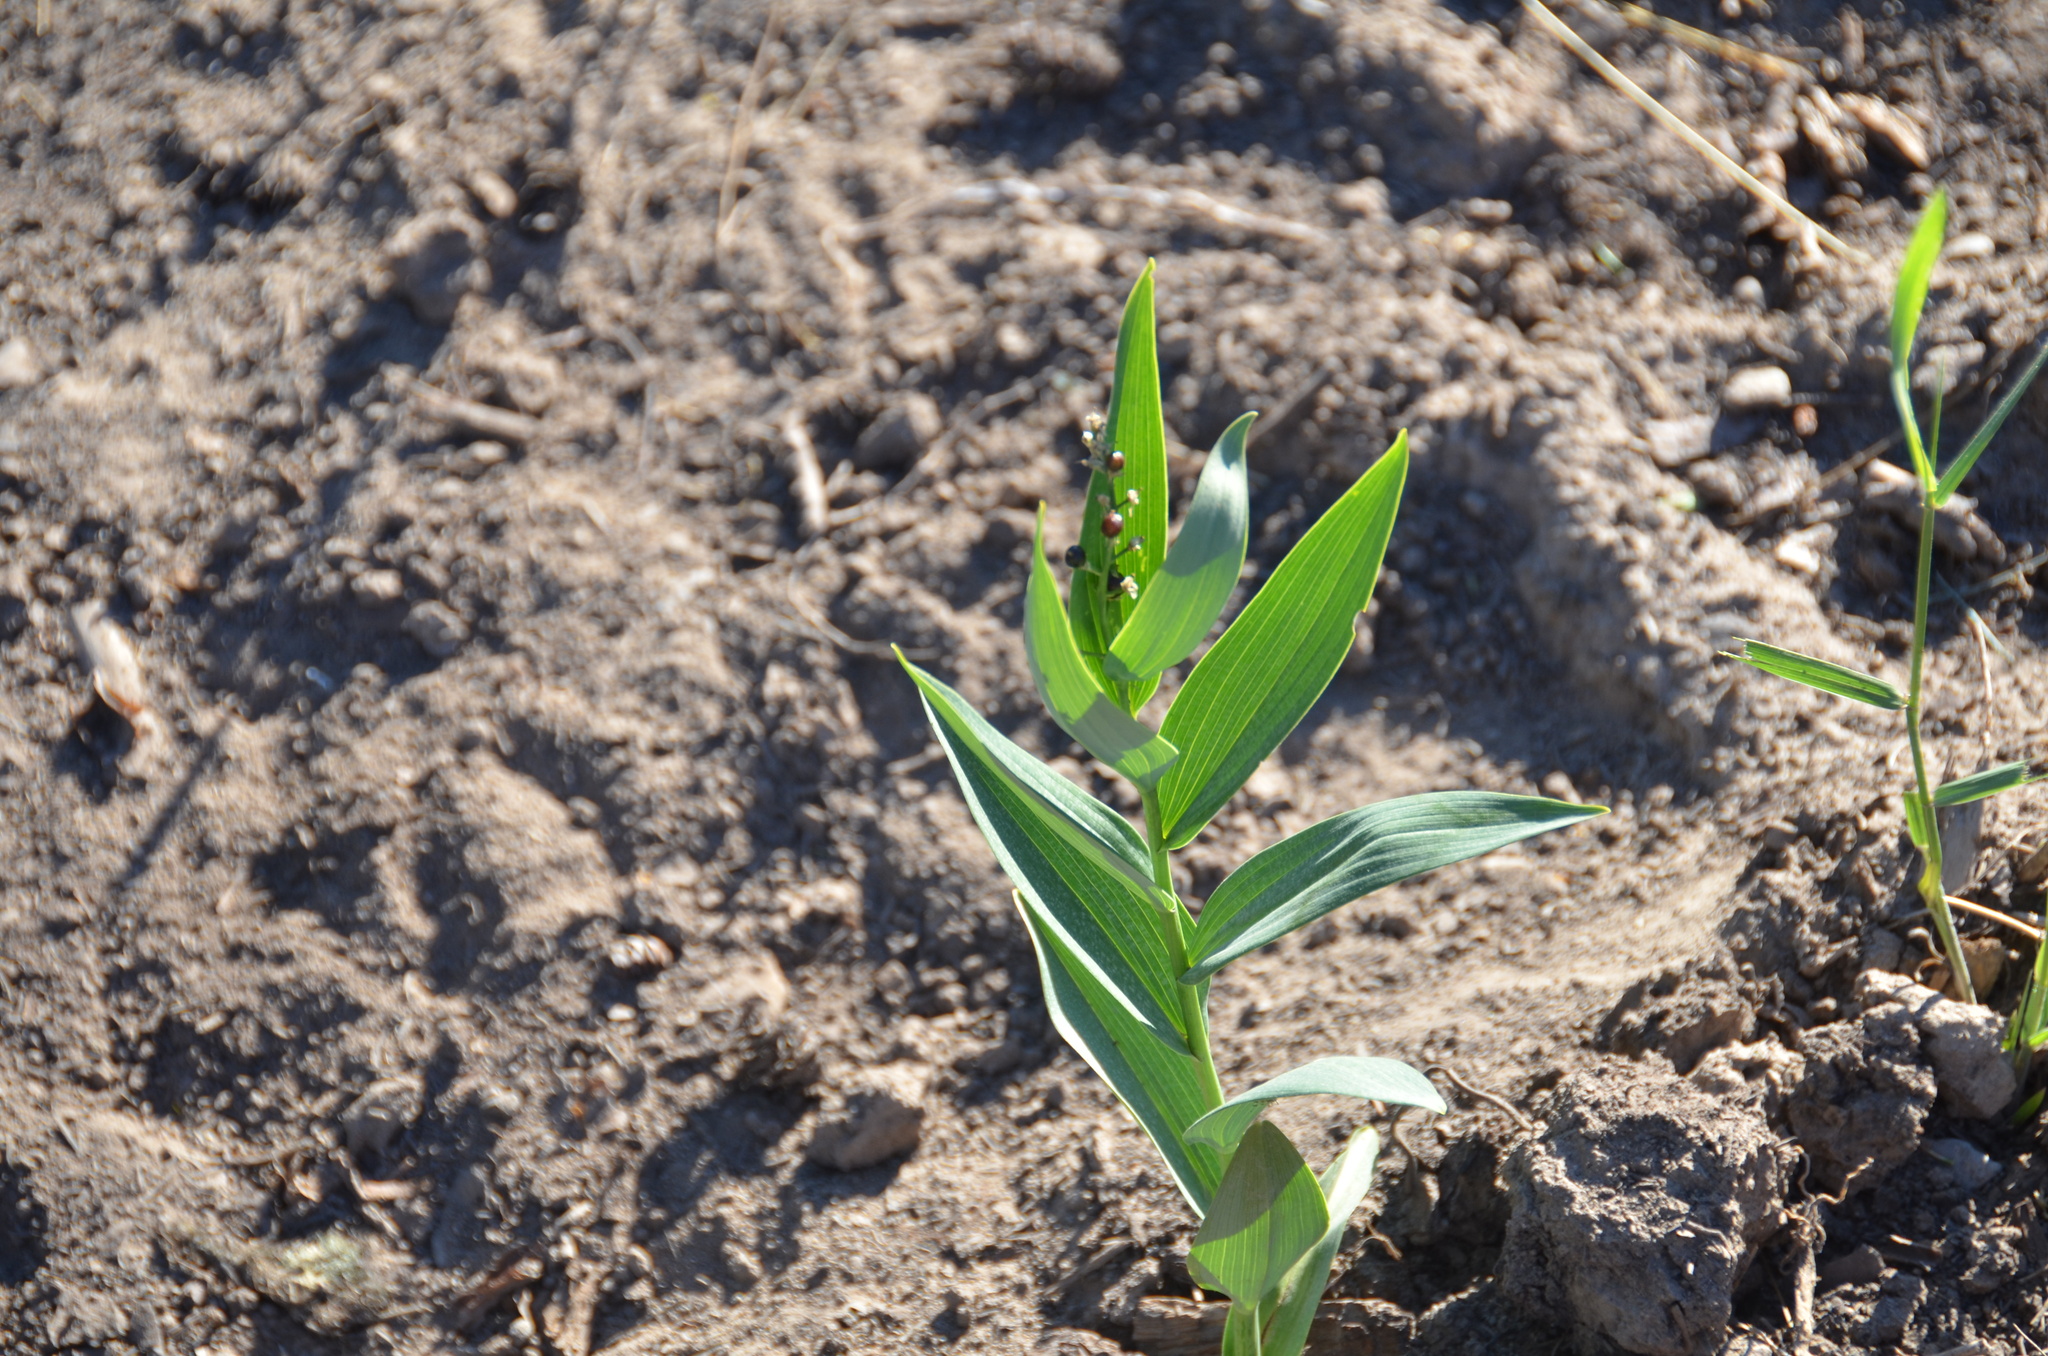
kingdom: Plantae
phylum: Tracheophyta
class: Liliopsida
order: Asparagales
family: Asparagaceae
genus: Maianthemum
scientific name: Maianthemum stellatum
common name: Little false solomon's seal
